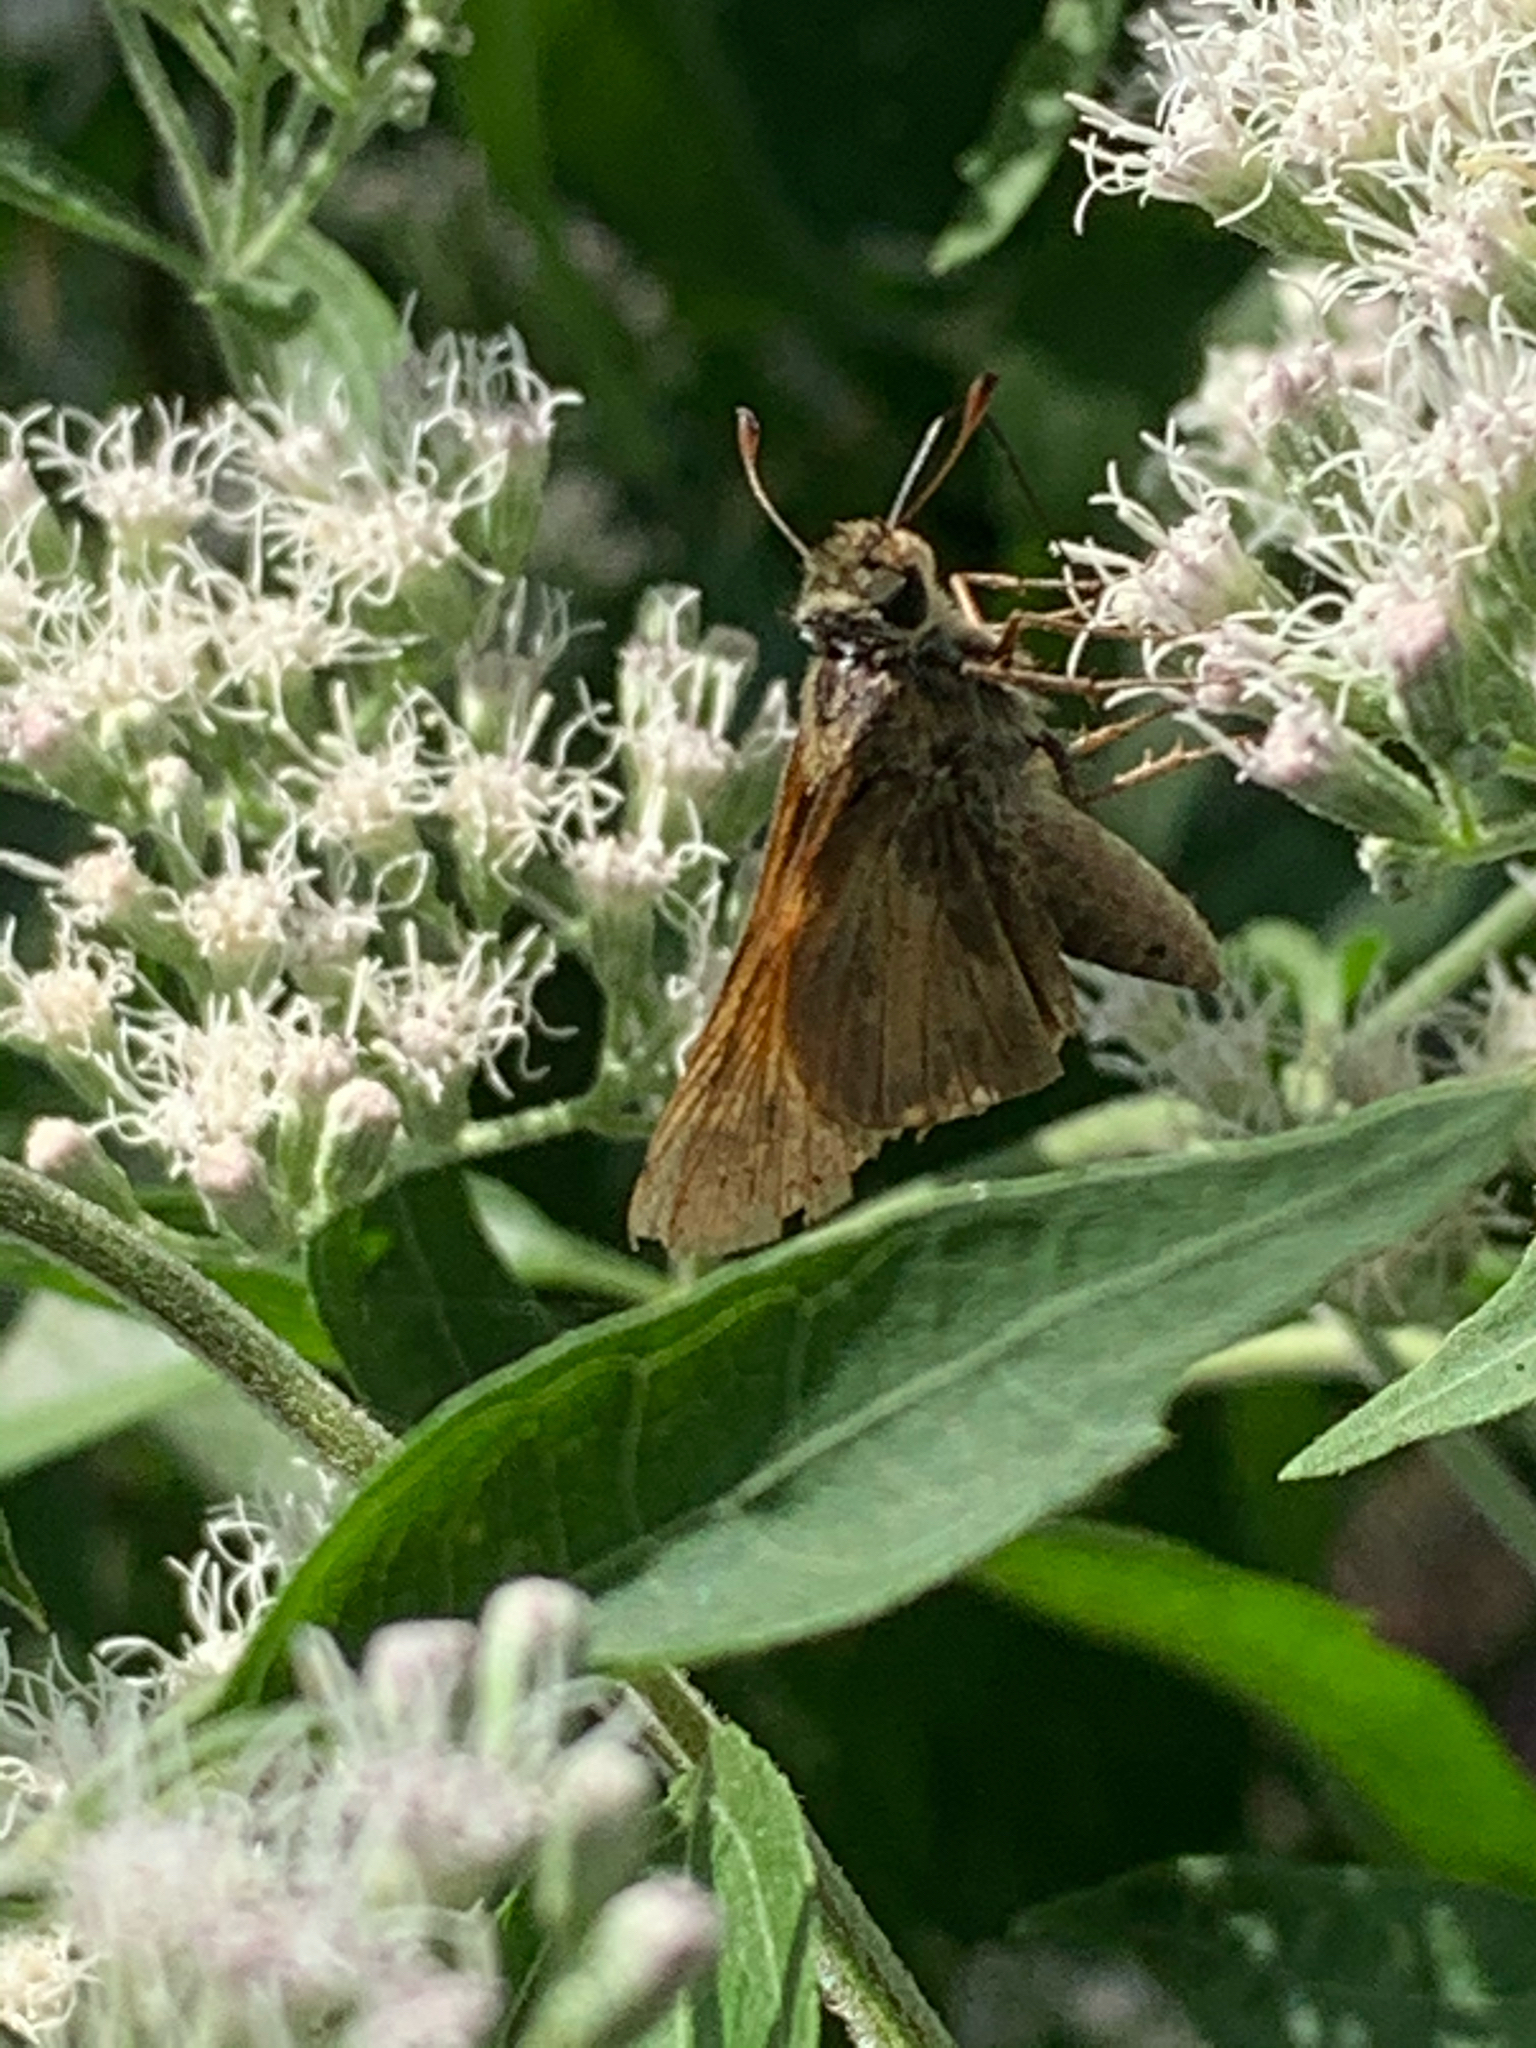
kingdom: Animalia
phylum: Arthropoda
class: Insecta
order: Lepidoptera
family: Hesperiidae
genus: Atalopedes
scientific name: Atalopedes
